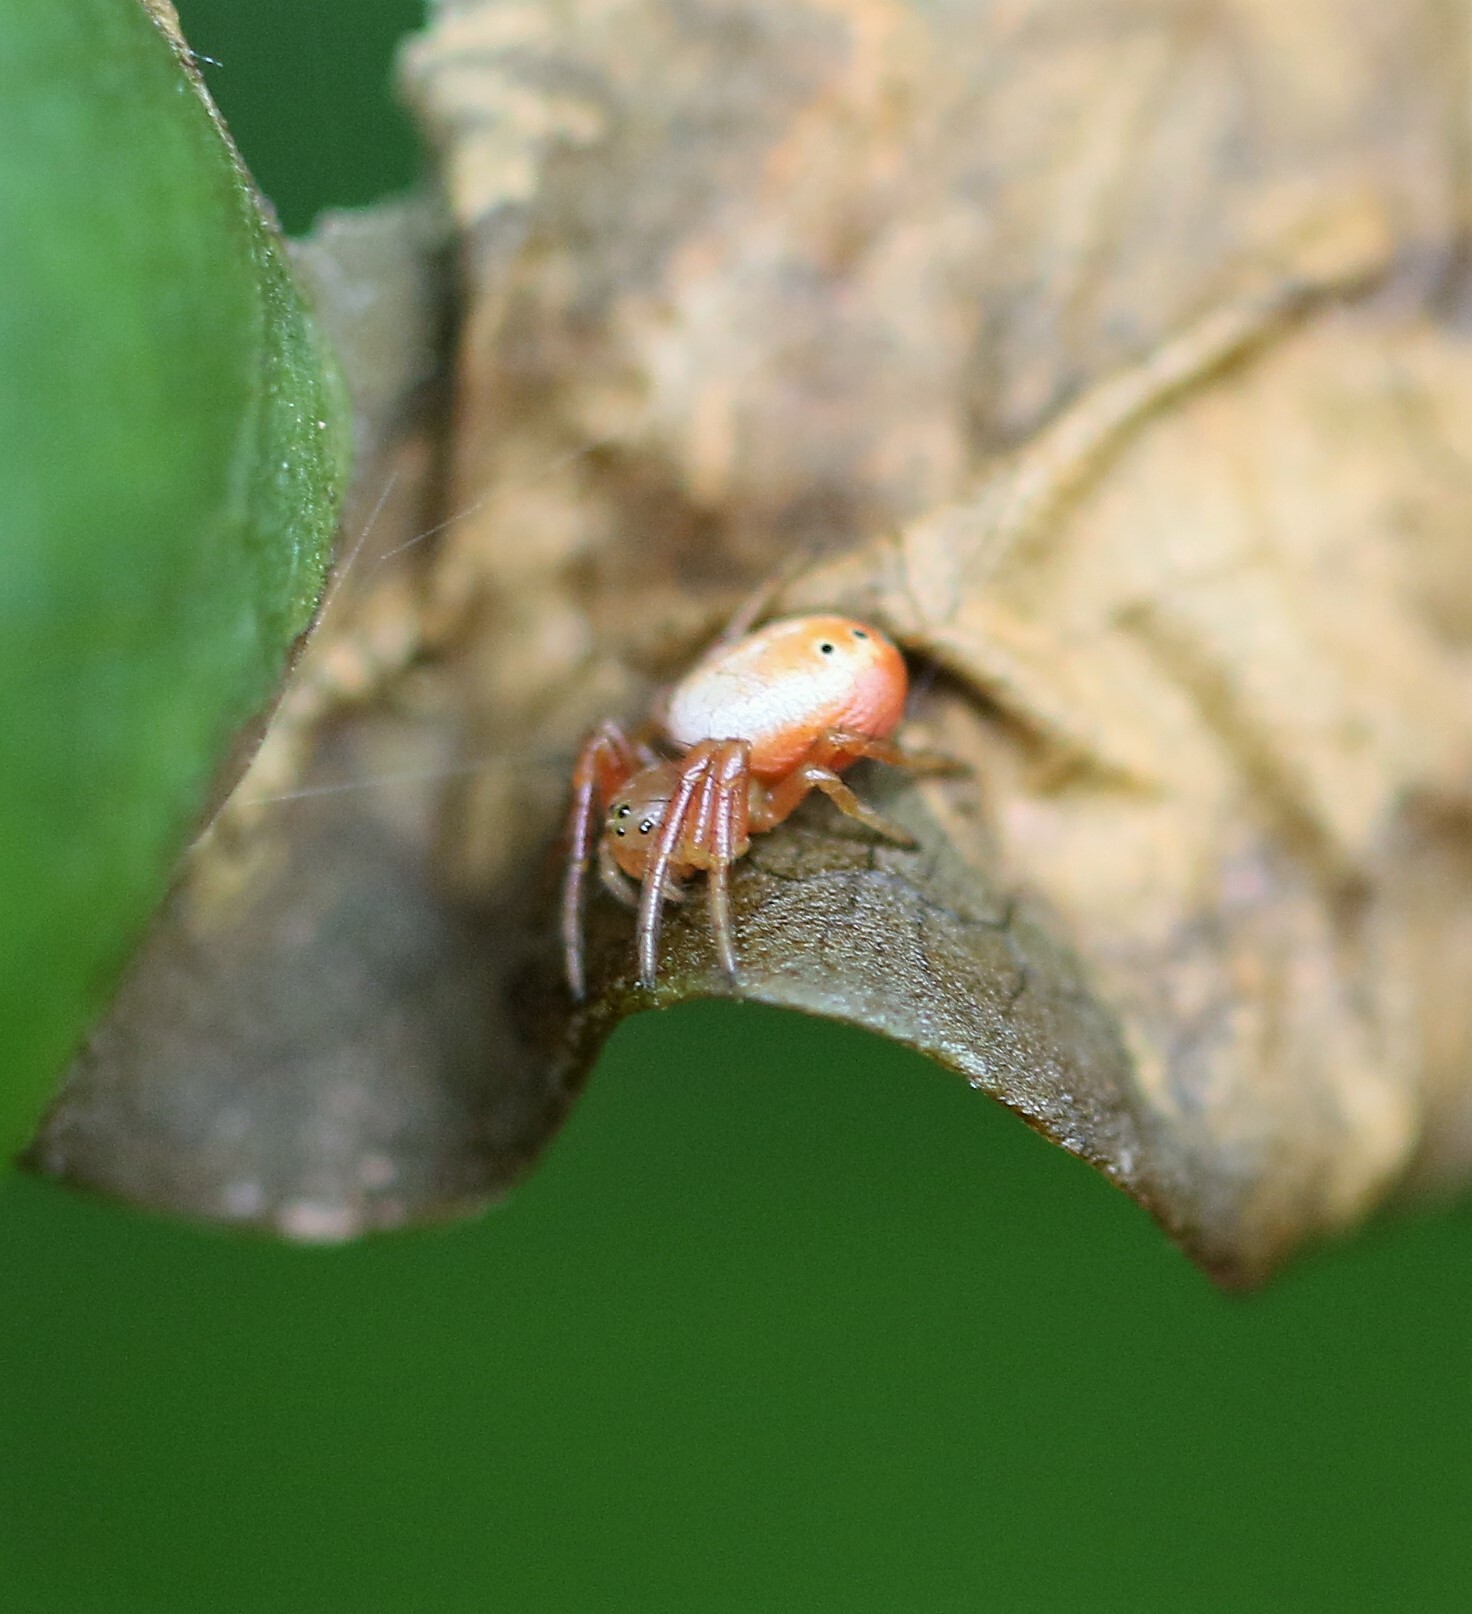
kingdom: Animalia
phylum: Arthropoda
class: Arachnida
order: Araneae
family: Araneidae
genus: Araniella
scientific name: Araniella displicata
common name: Sixspotted orb weaver
